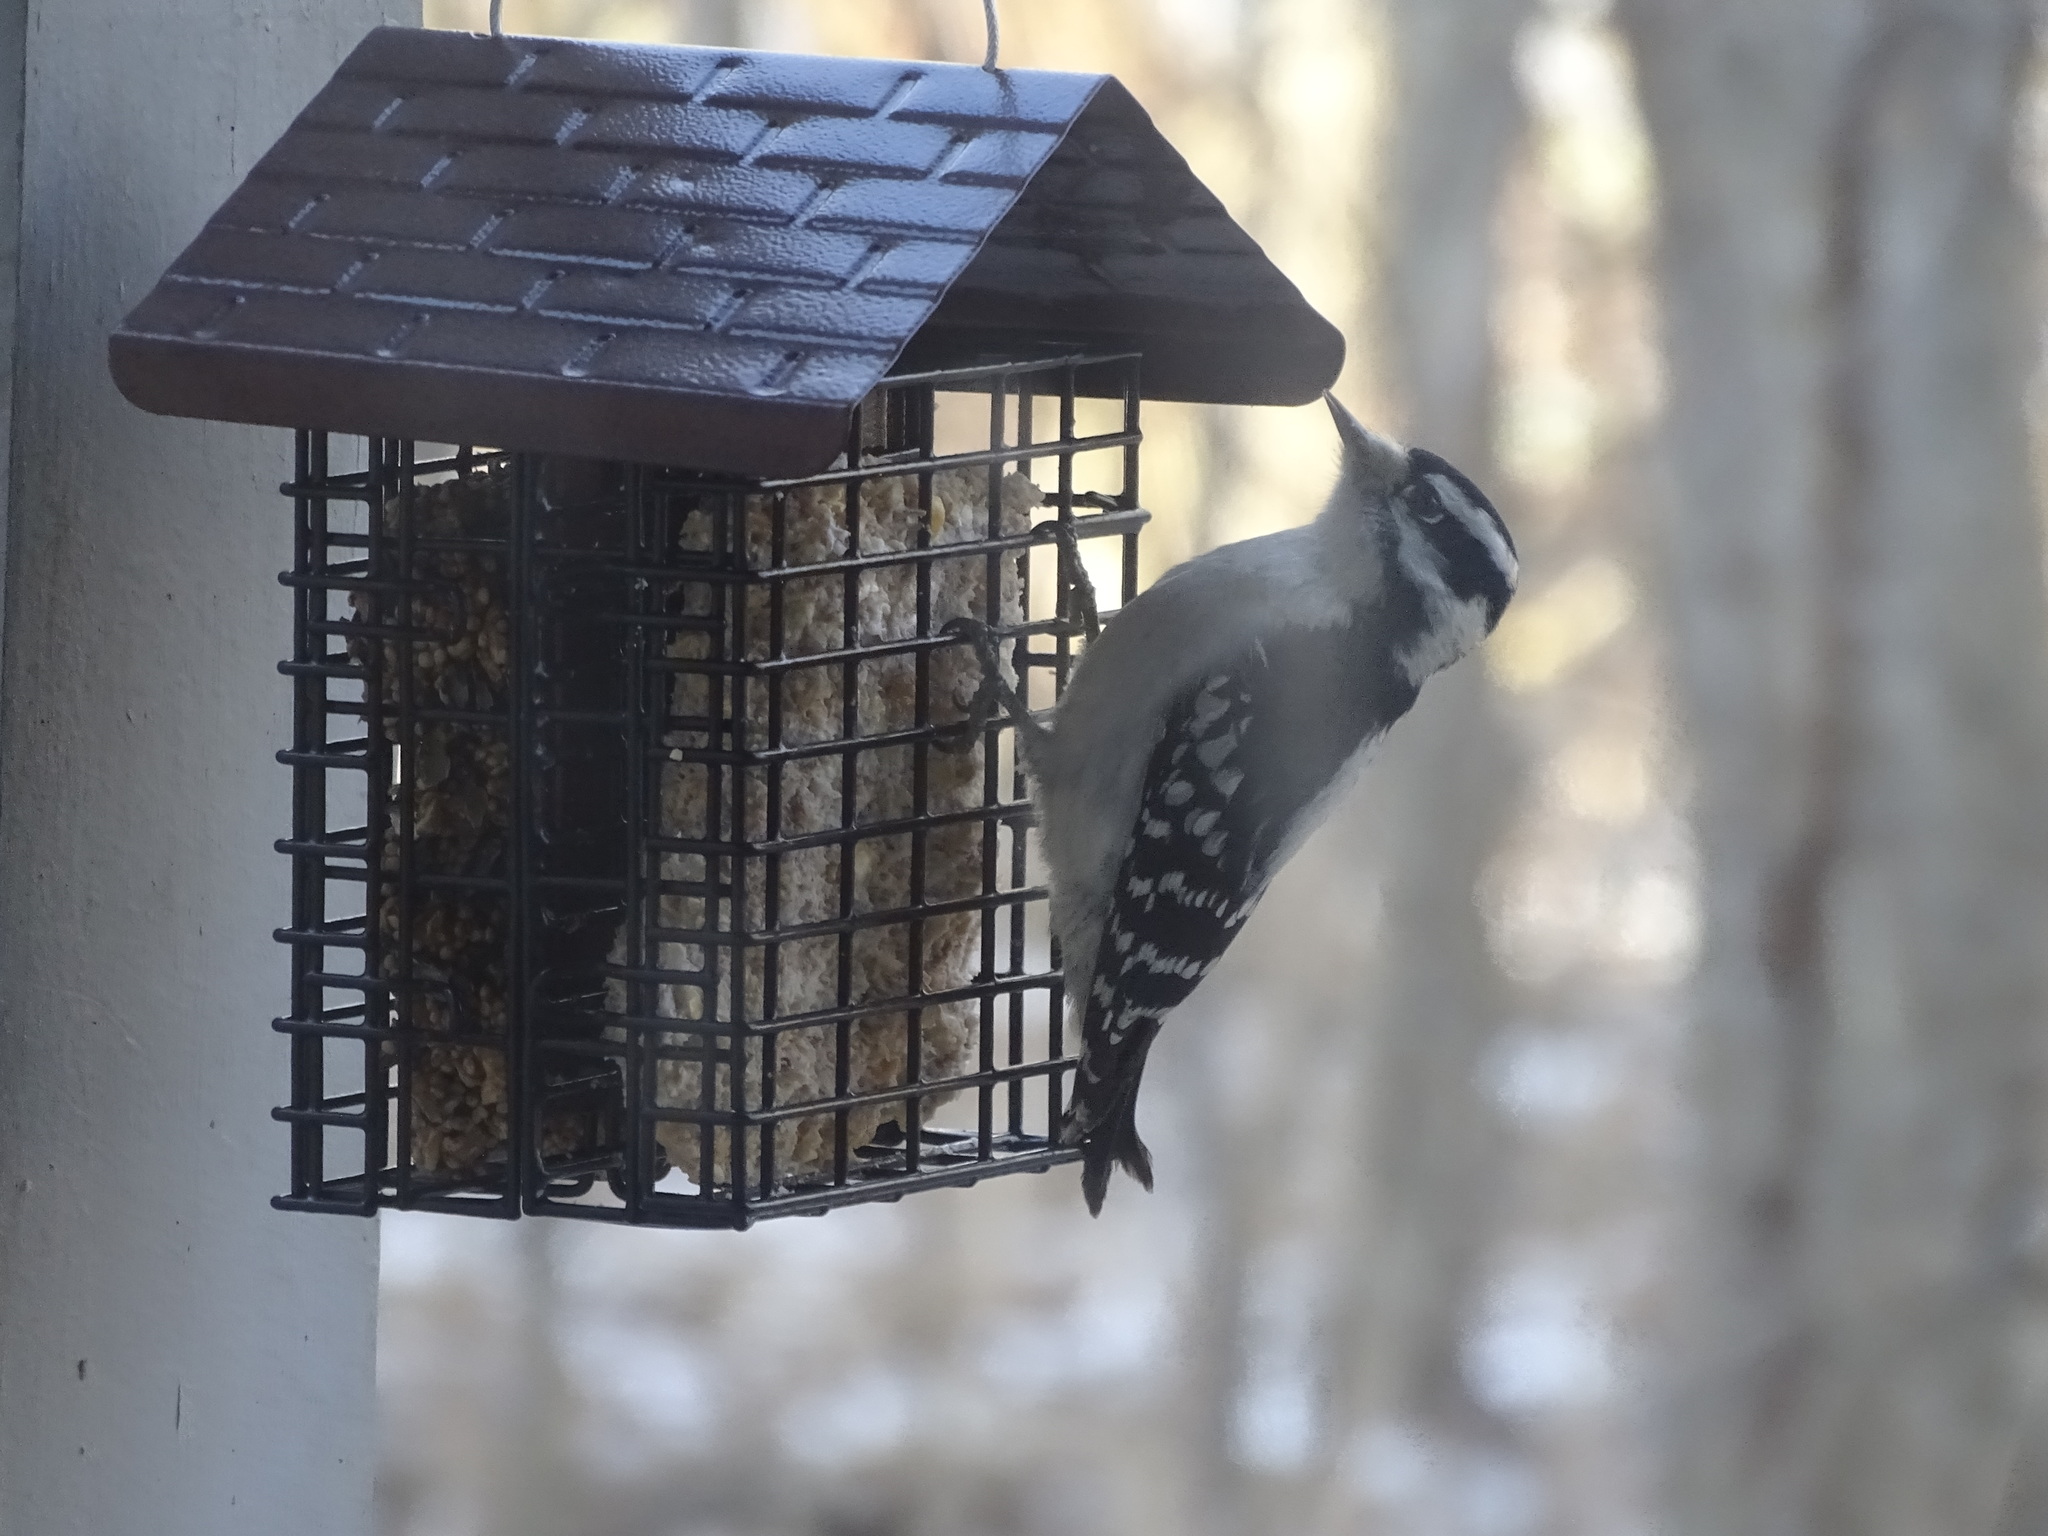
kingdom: Animalia
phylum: Chordata
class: Aves
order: Piciformes
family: Picidae
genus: Dryobates
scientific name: Dryobates pubescens
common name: Downy woodpecker
